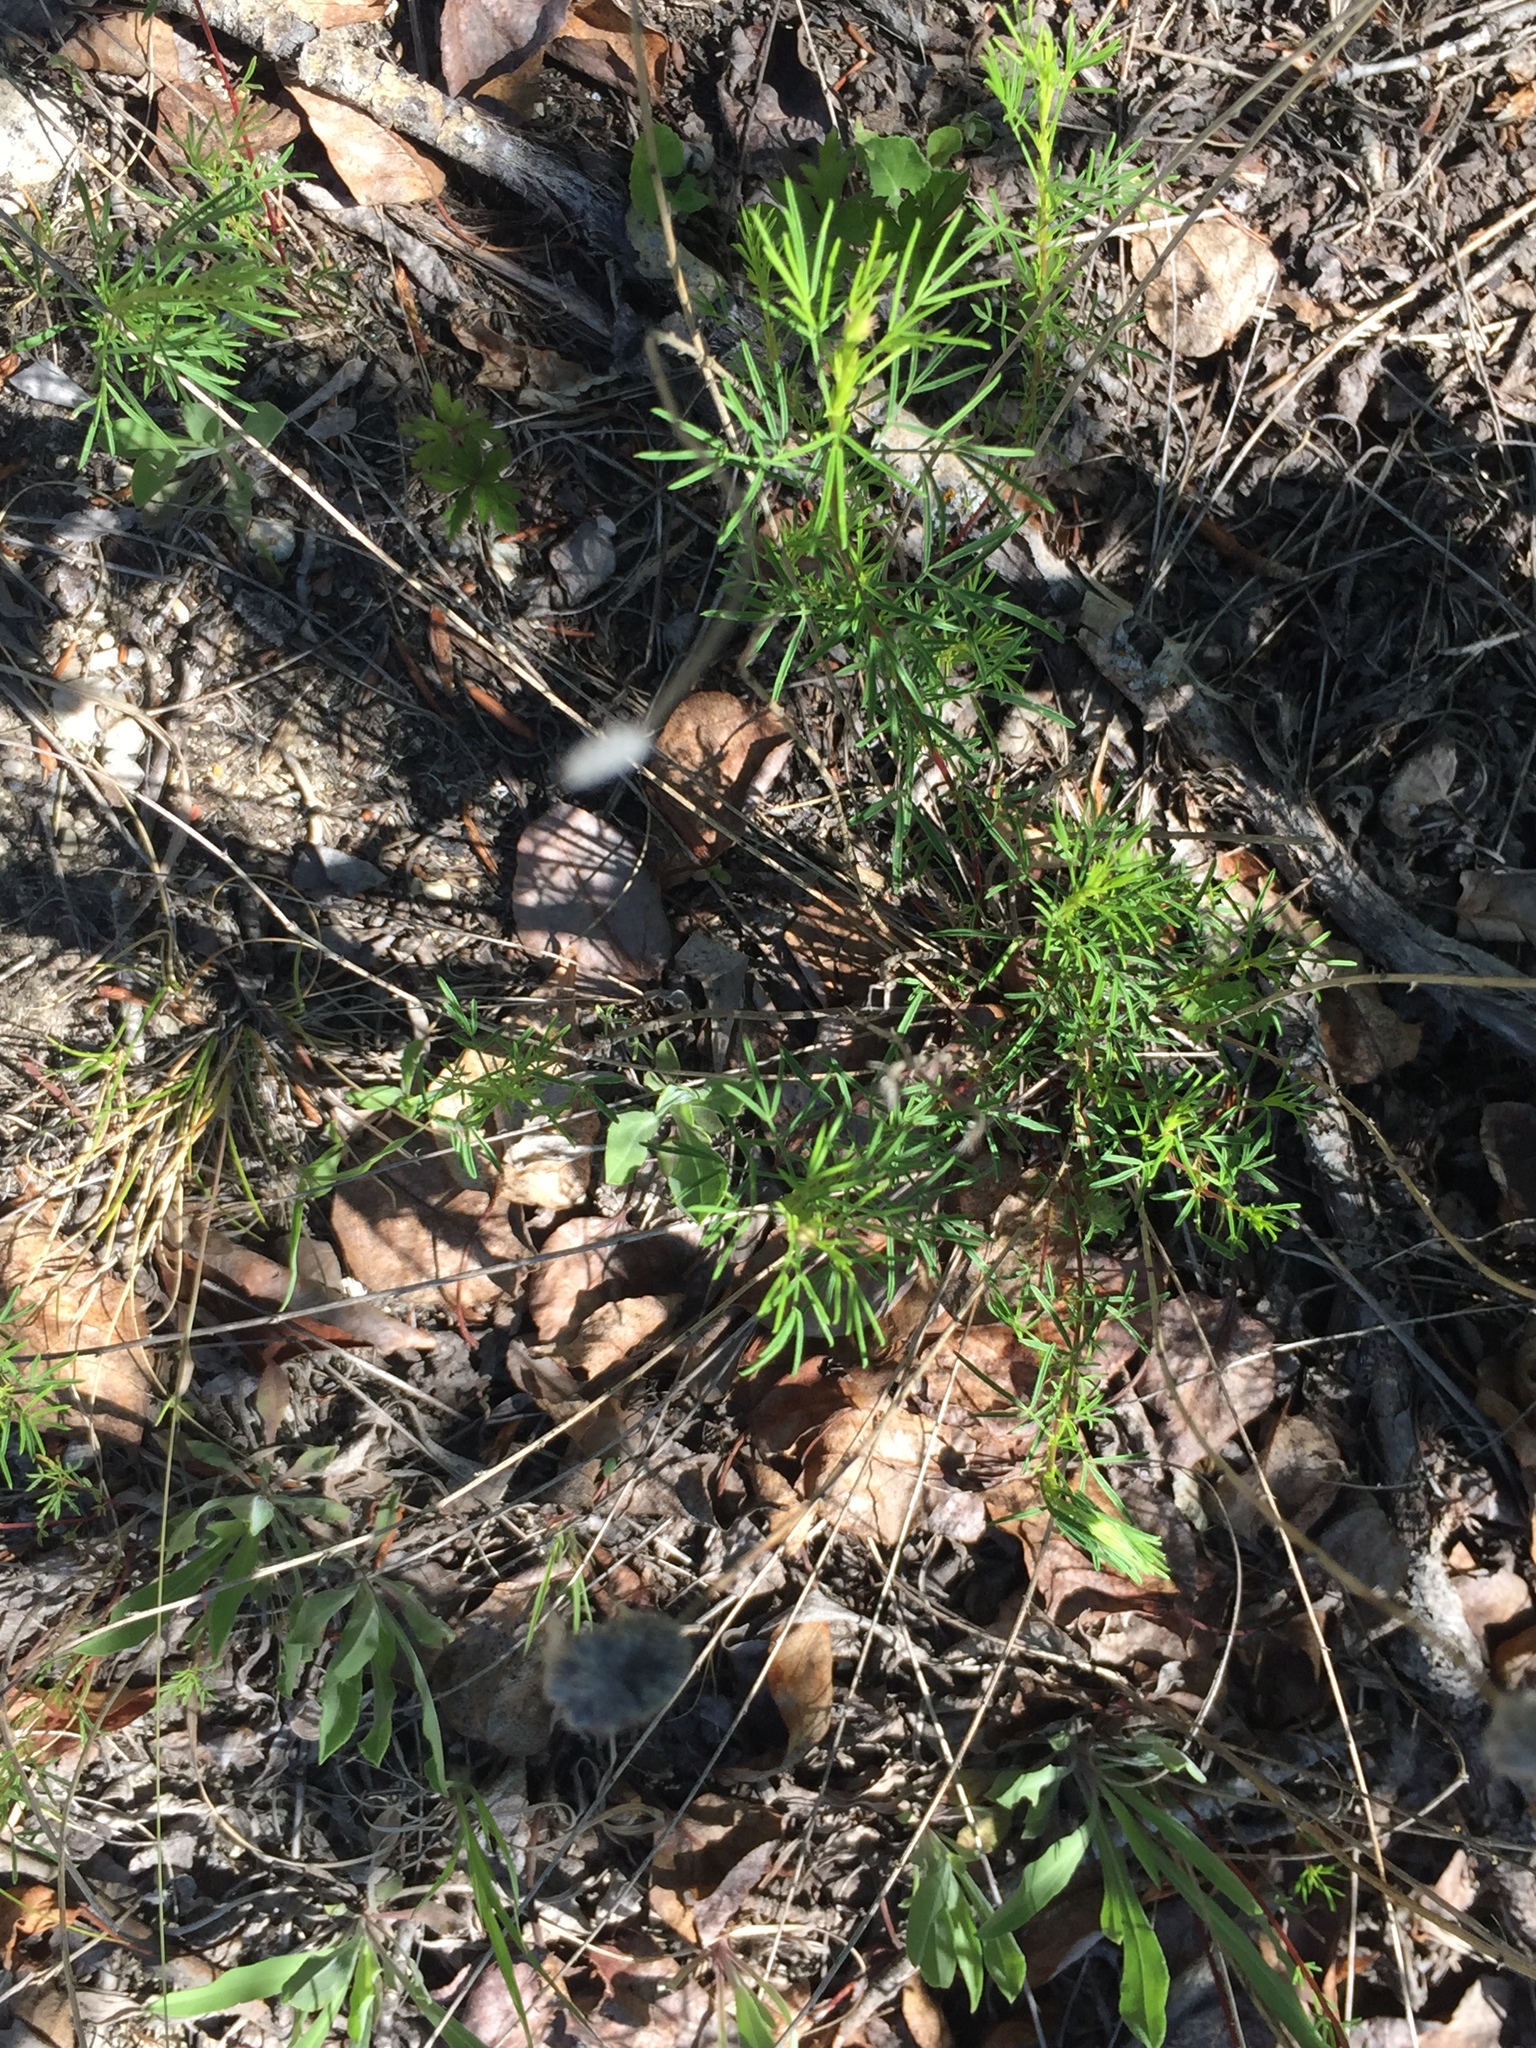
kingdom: Plantae
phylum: Tracheophyta
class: Magnoliopsida
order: Fabales
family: Fabaceae
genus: Dalea
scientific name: Dalea purpurea
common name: Purple prairie-clover
